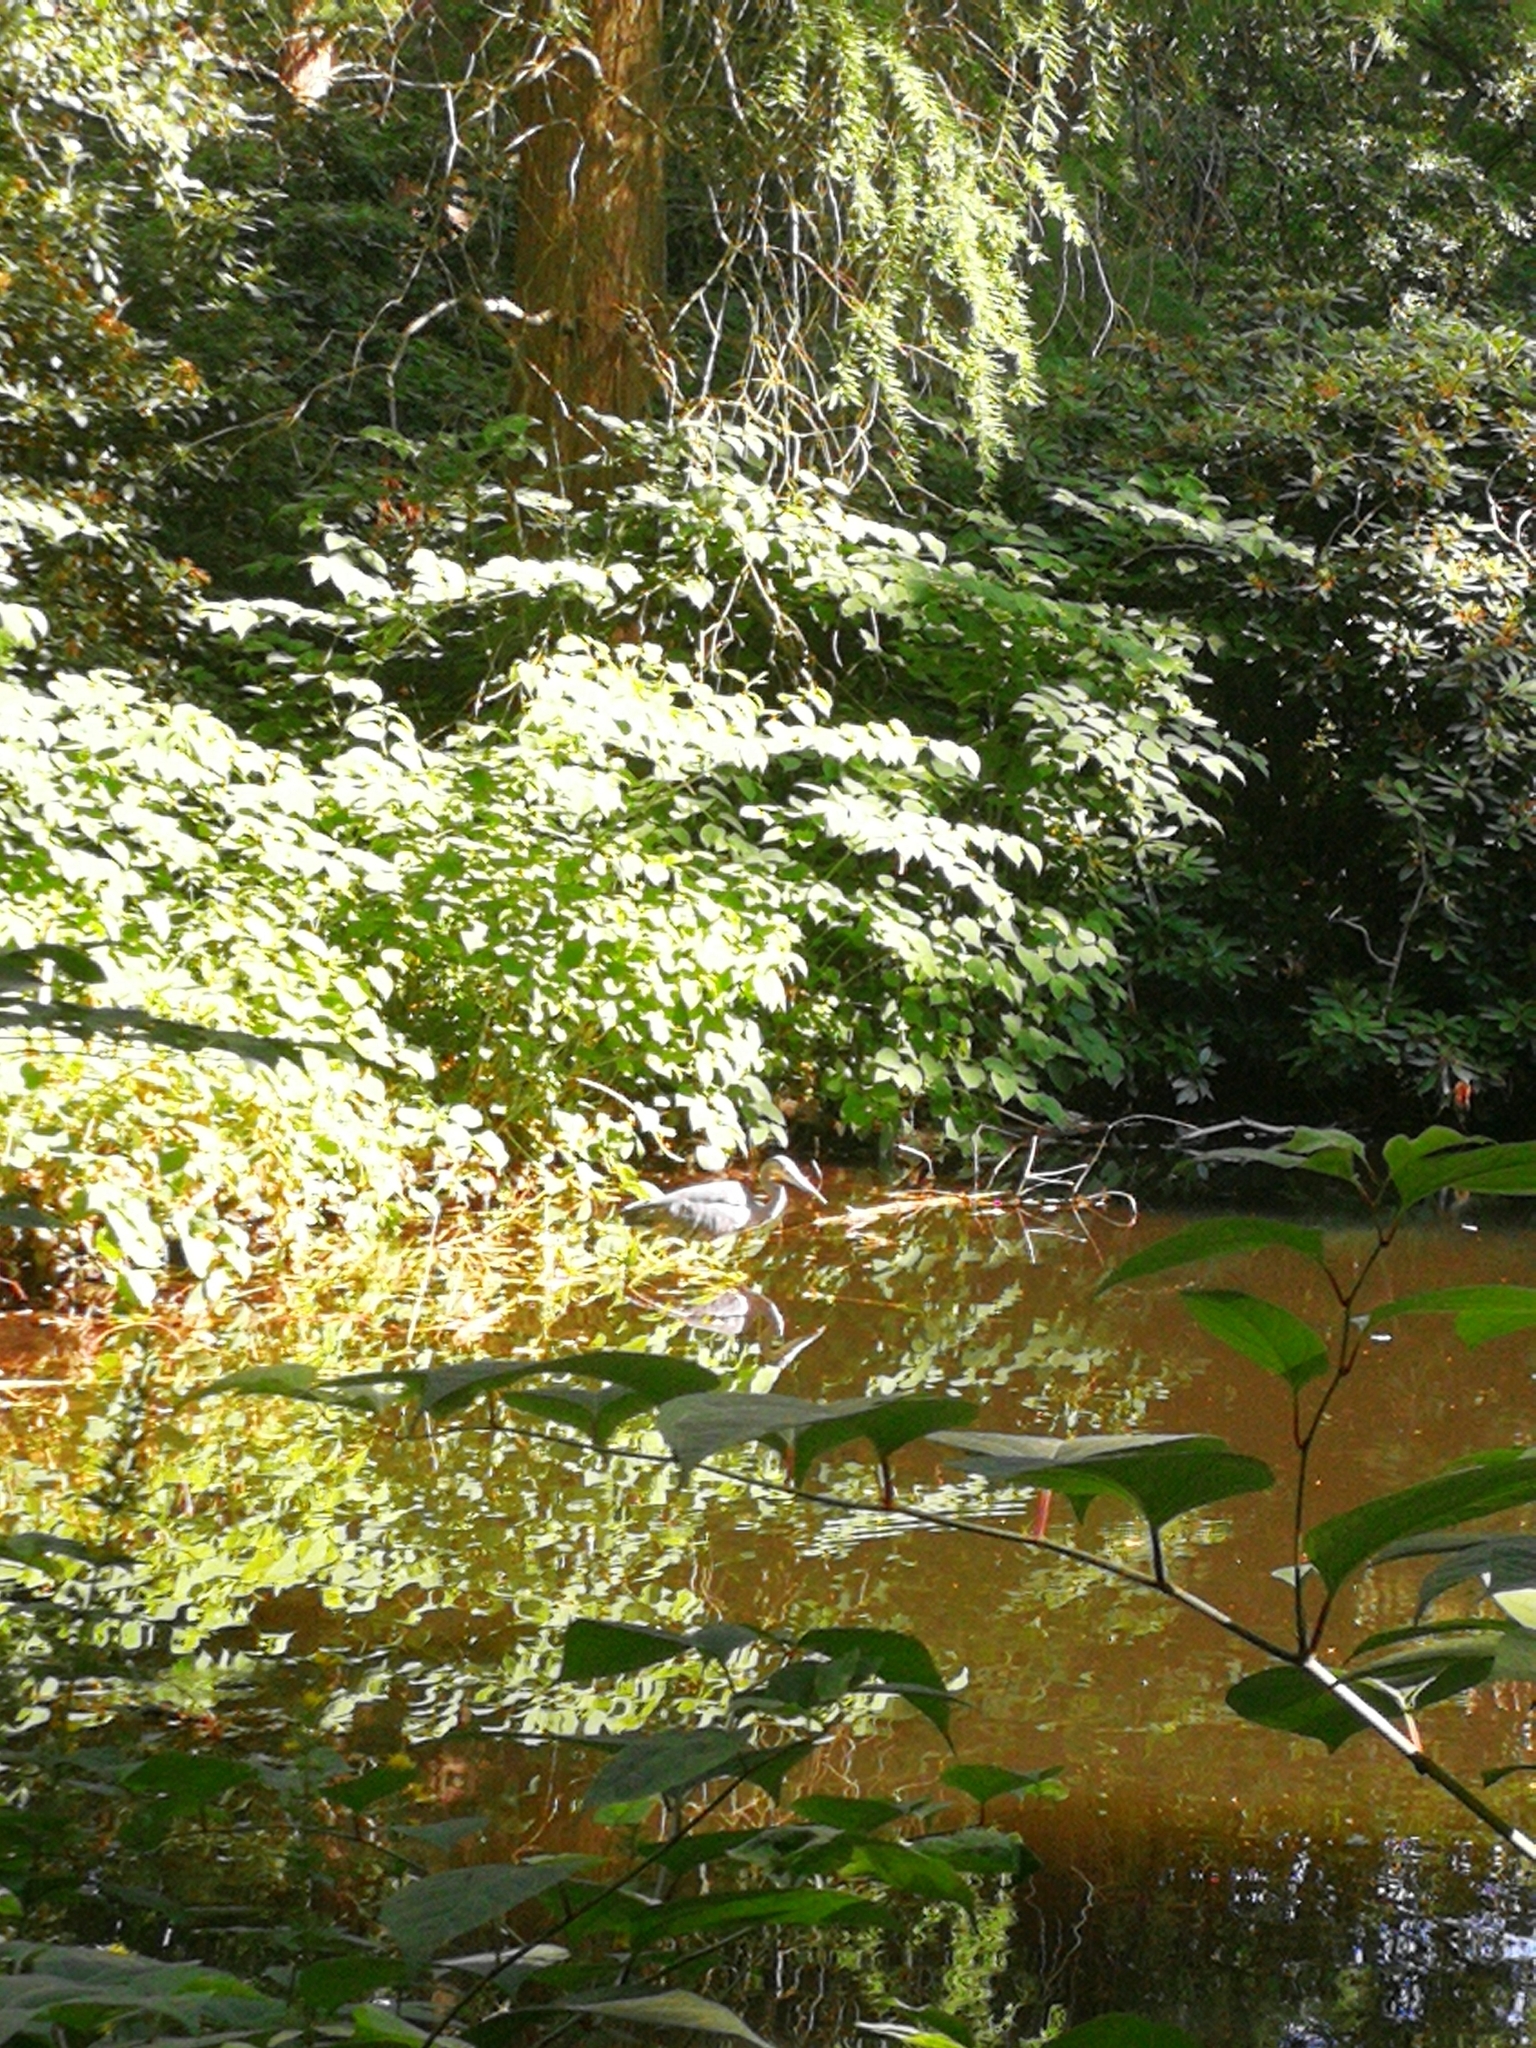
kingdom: Animalia
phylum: Chordata
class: Aves
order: Pelecaniformes
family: Ardeidae
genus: Ardea
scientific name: Ardea cinerea
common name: Grey heron
